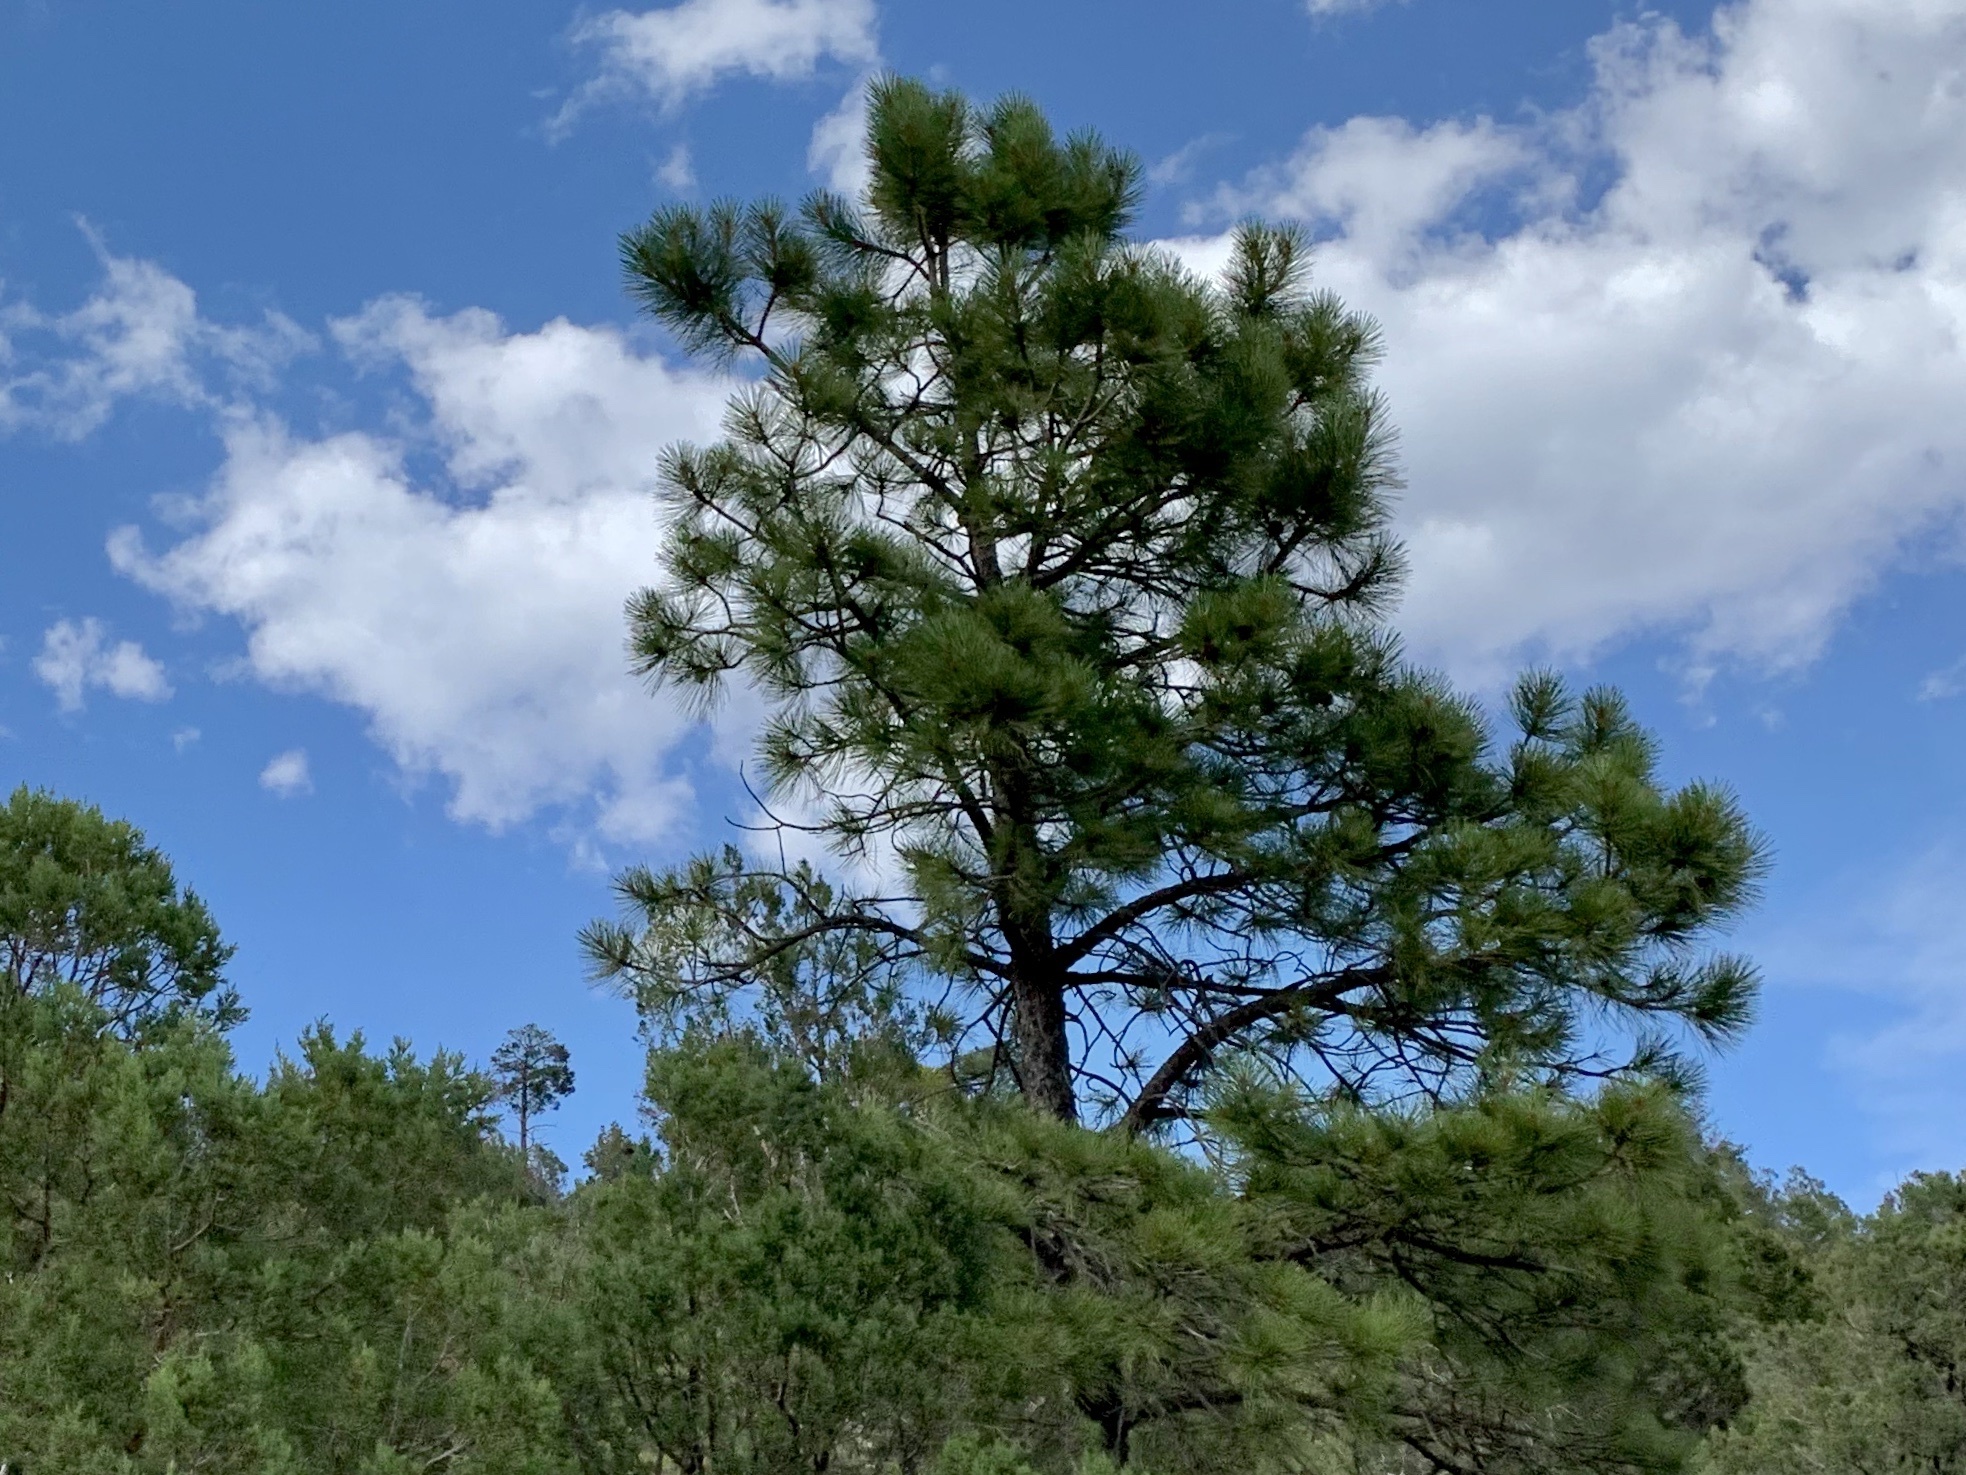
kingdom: Plantae
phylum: Tracheophyta
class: Pinopsida
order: Pinales
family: Pinaceae
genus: Pinus
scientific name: Pinus ponderosa
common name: Western yellow-pine
